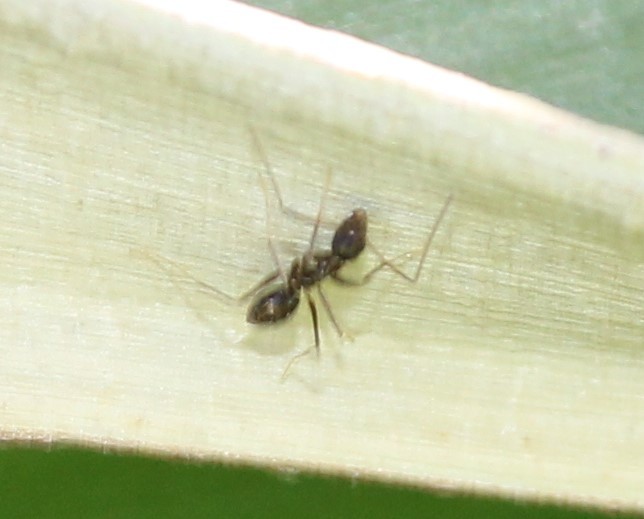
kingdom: Animalia
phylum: Arthropoda
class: Insecta
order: Hymenoptera
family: Formicidae
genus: Paratrechina
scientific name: Paratrechina longicornis
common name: Longhorned crazy ant
